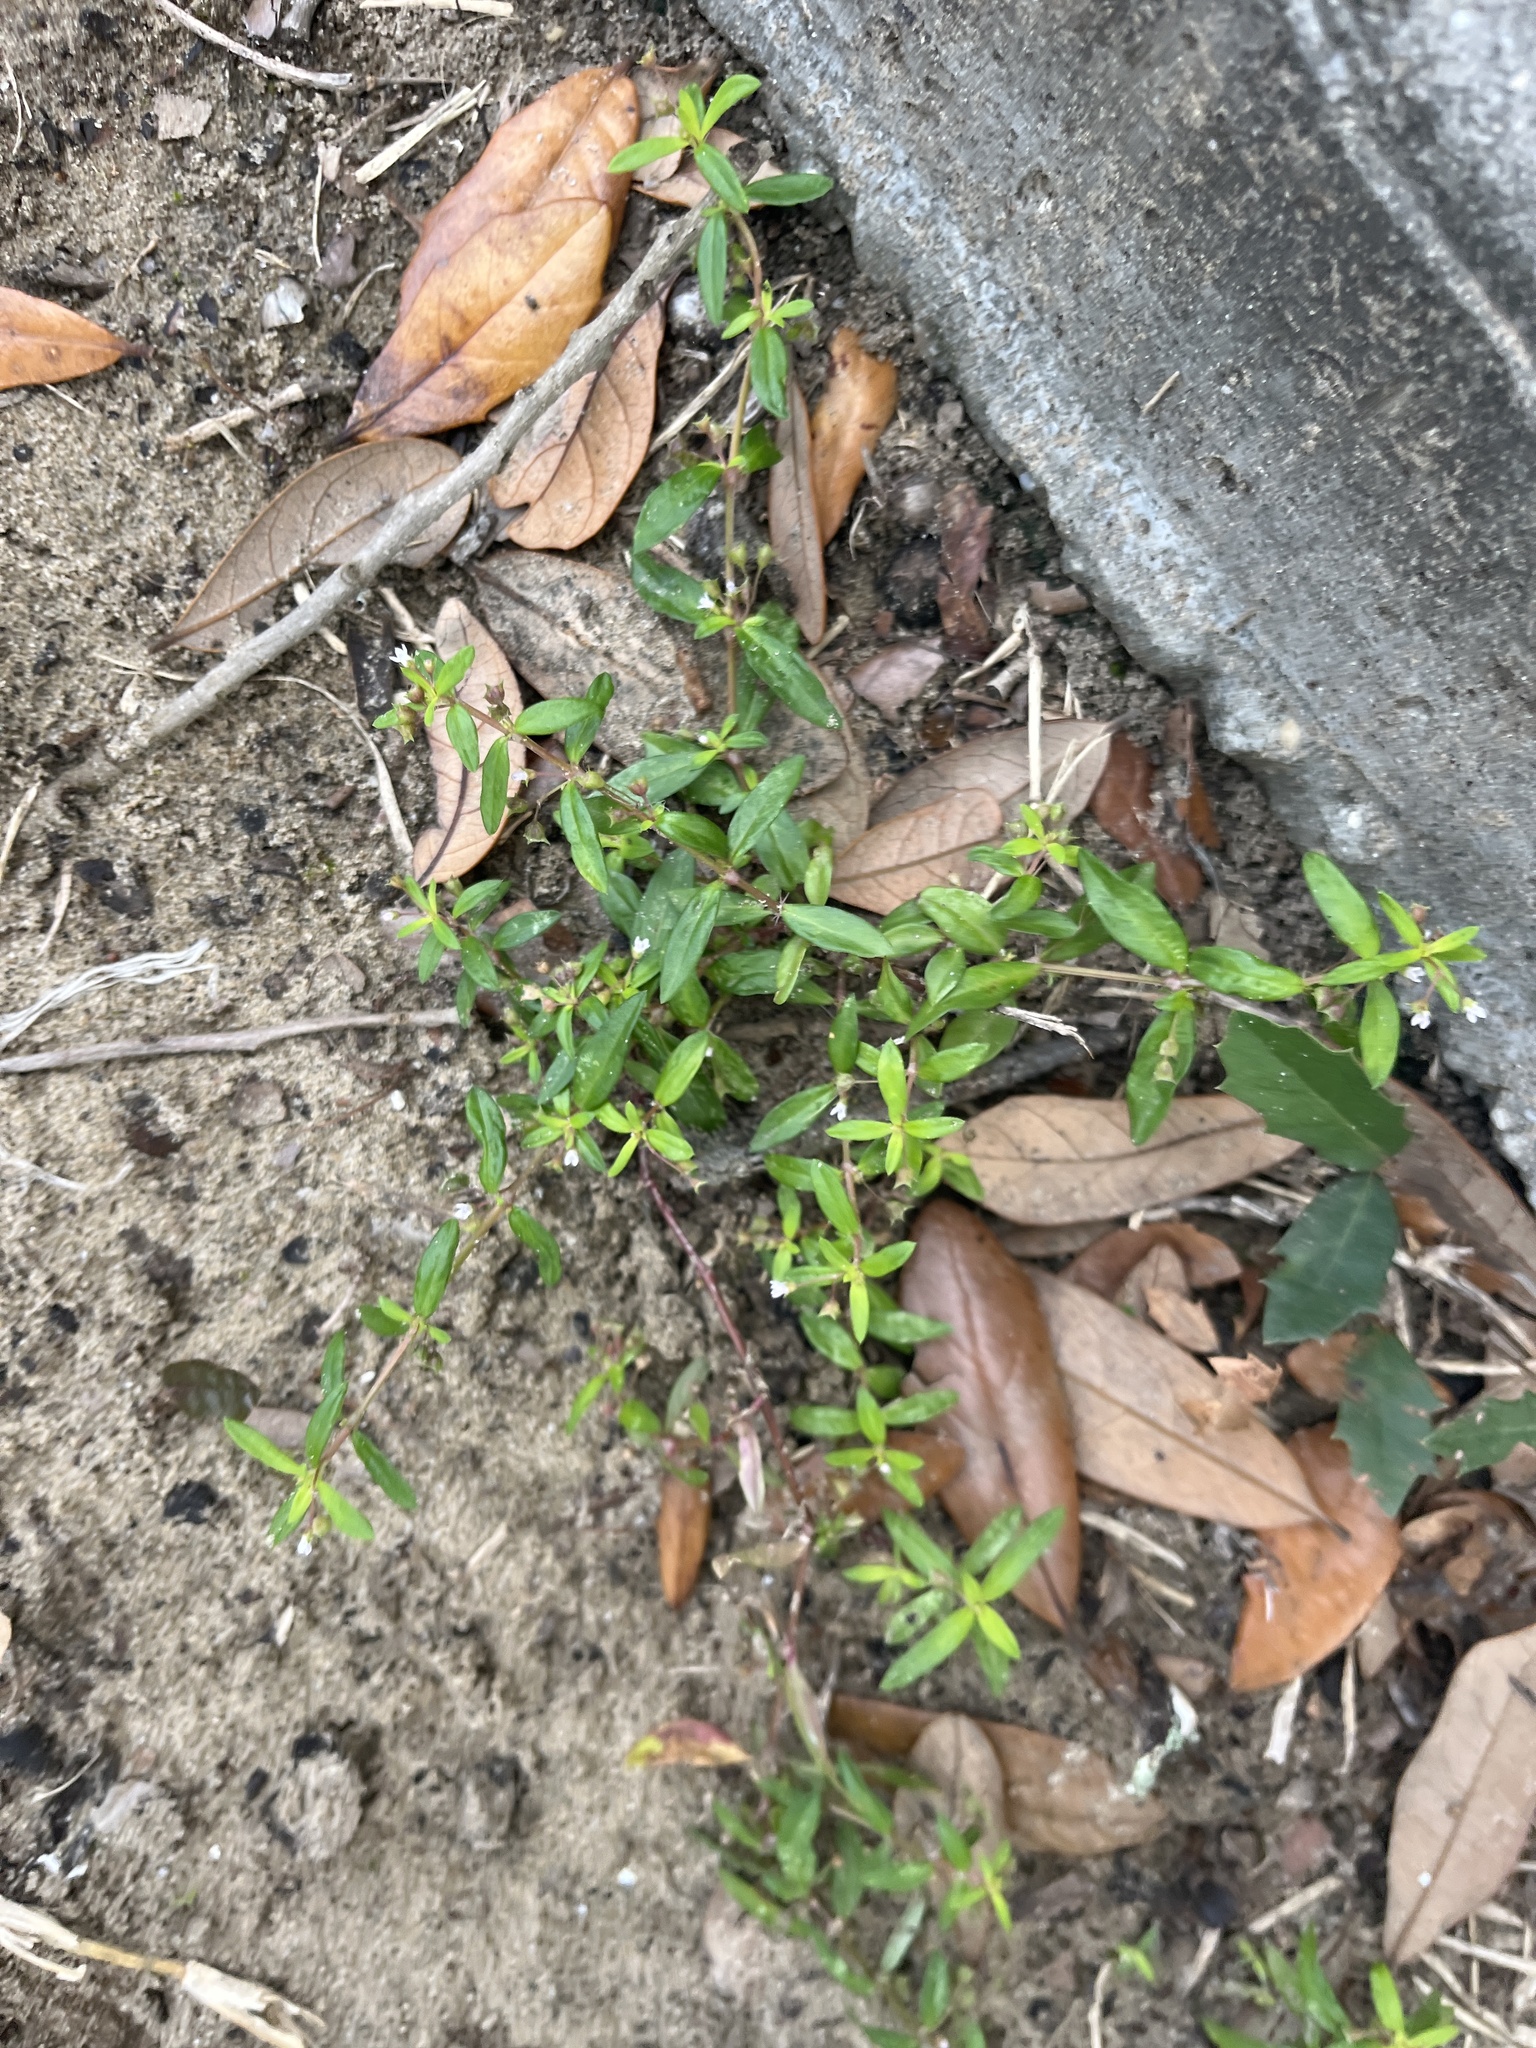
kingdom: Plantae
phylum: Tracheophyta
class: Magnoliopsida
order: Gentianales
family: Rubiaceae
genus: Oldenlandia
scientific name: Oldenlandia corymbosa
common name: Flat-top mille graines
